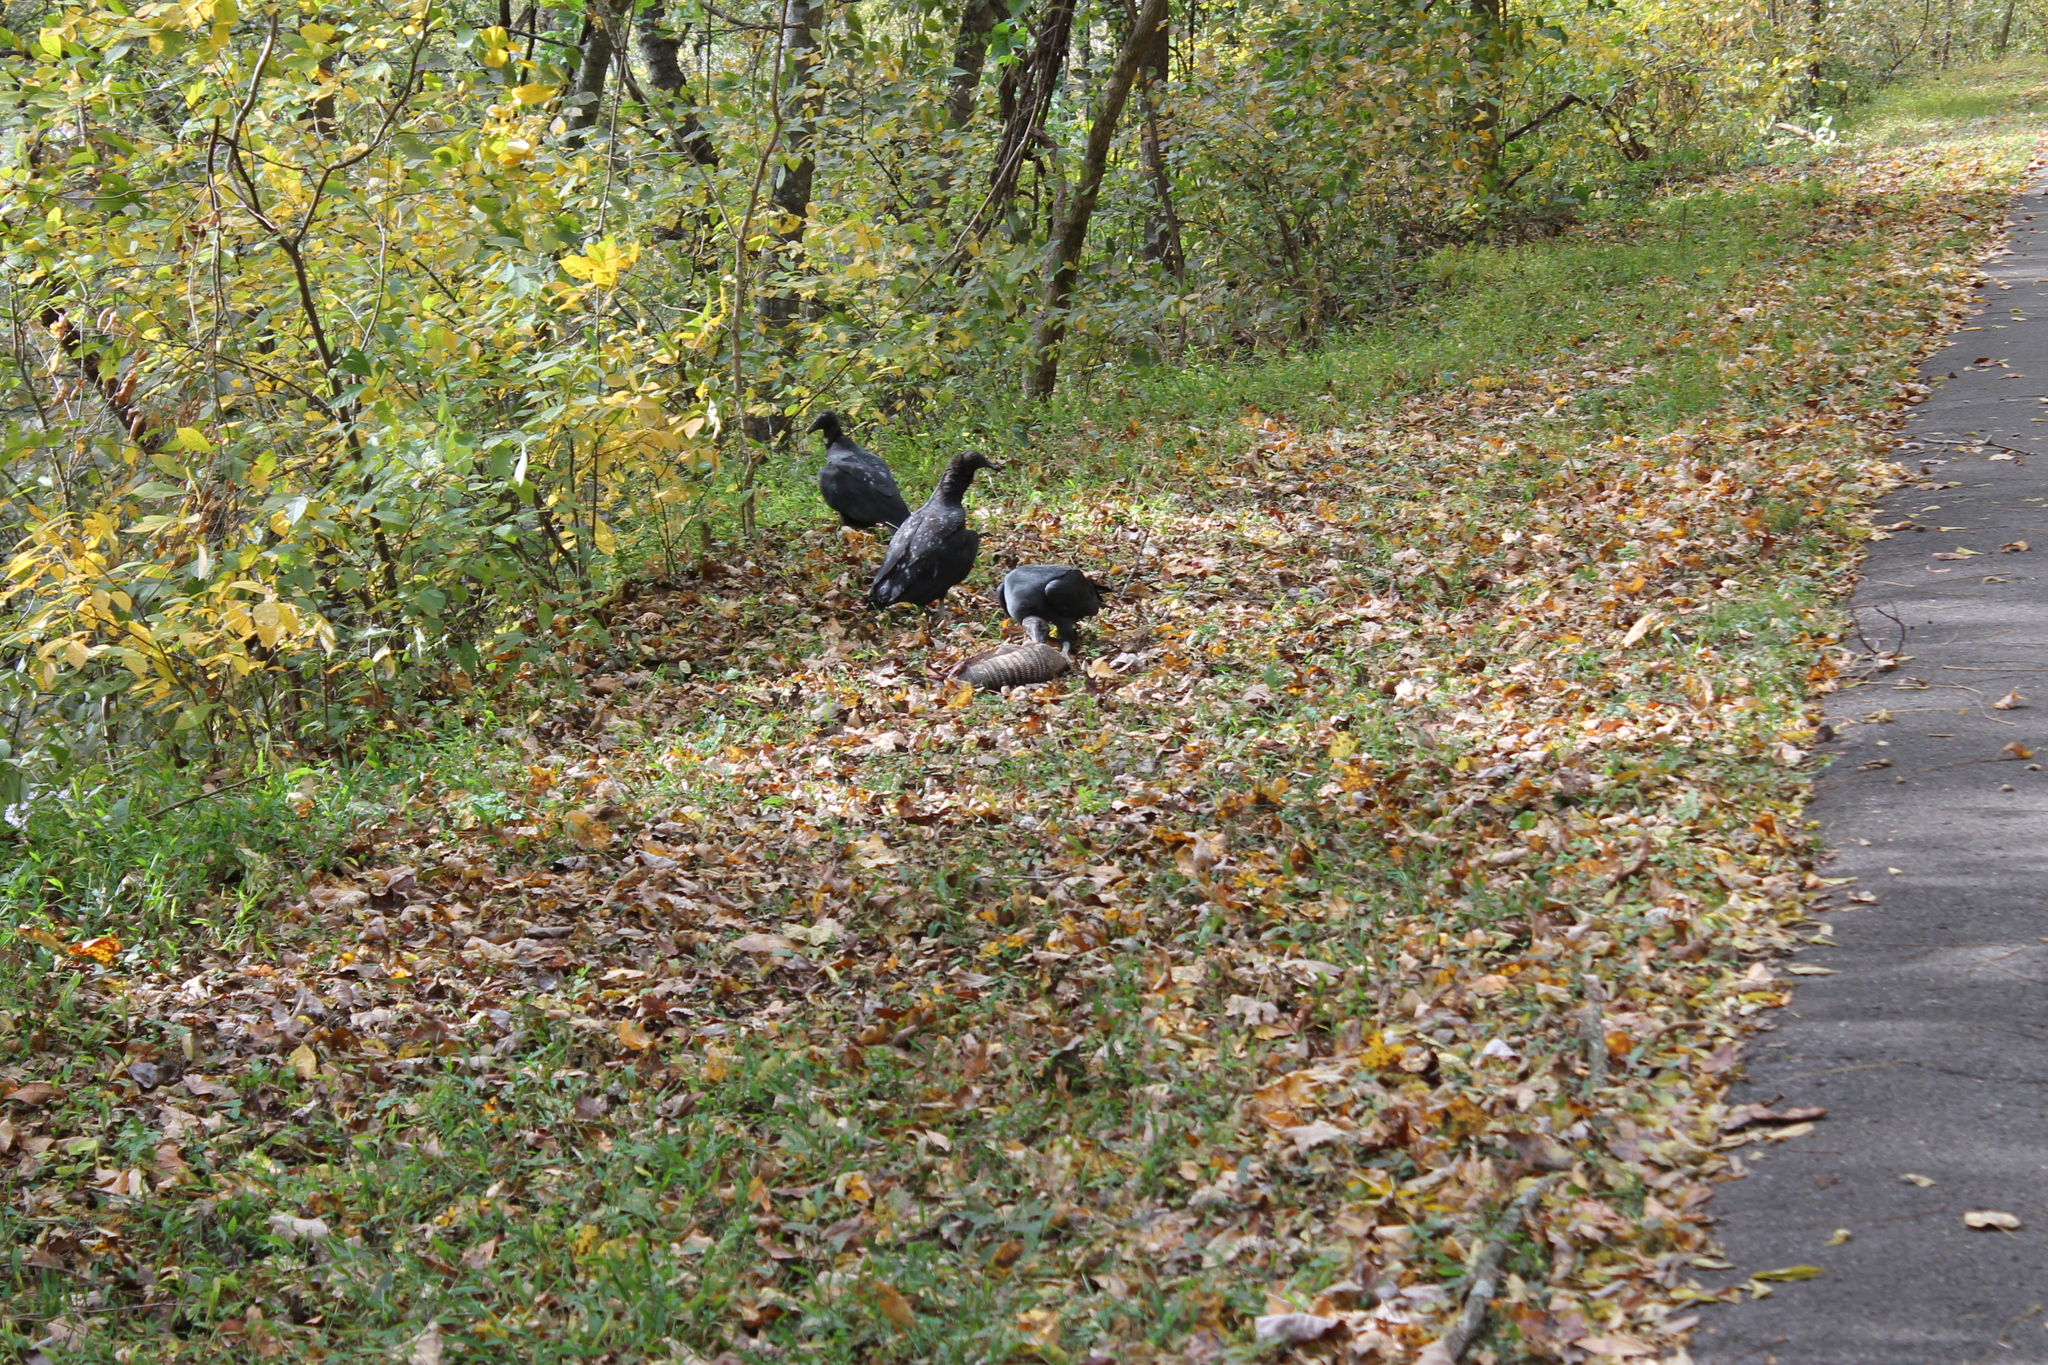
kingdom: Animalia
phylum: Chordata
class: Aves
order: Accipitriformes
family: Cathartidae
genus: Coragyps
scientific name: Coragyps atratus
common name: Black vulture
